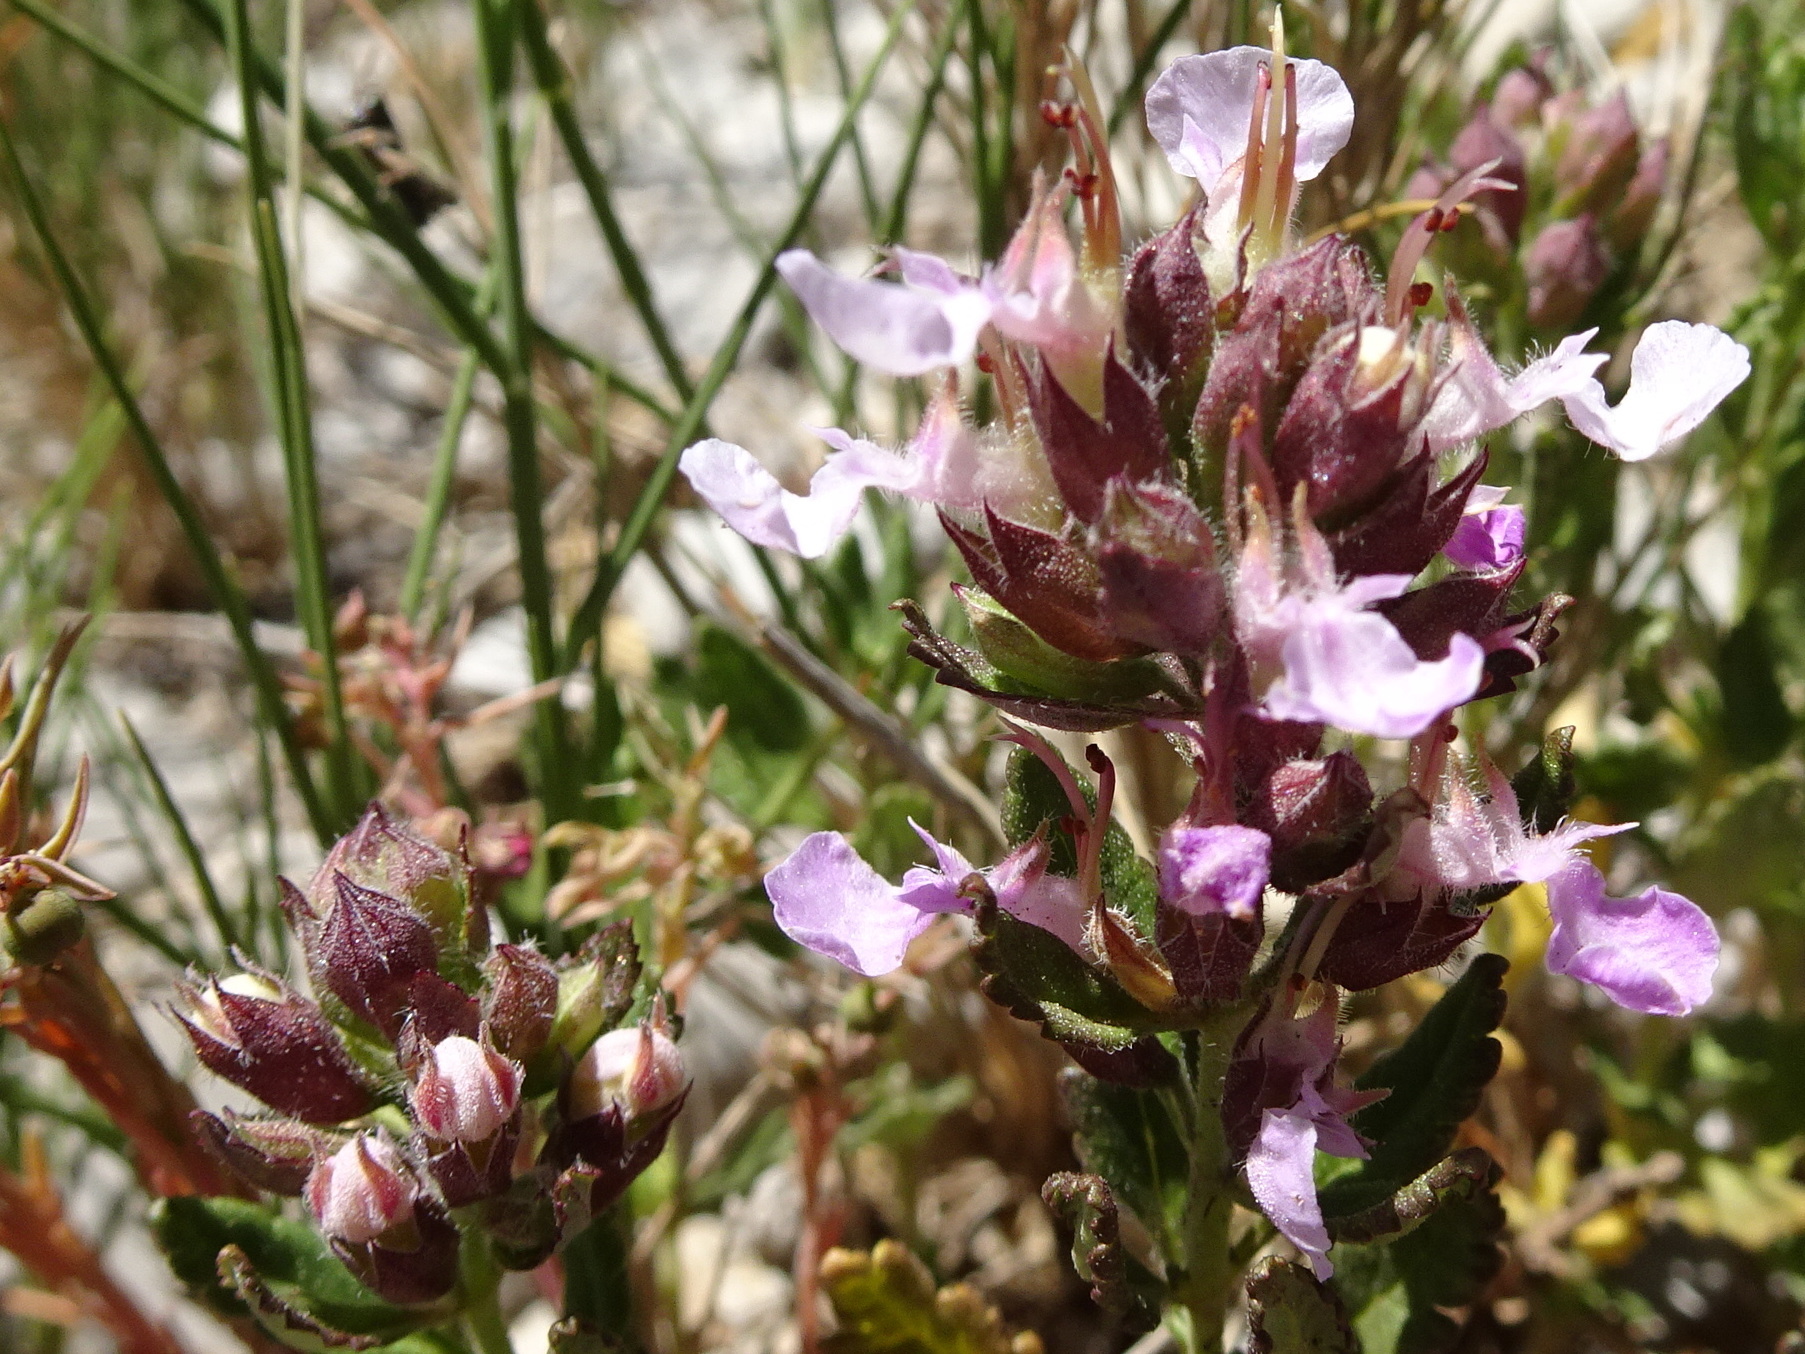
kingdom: Plantae
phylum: Tracheophyta
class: Magnoliopsida
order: Lamiales
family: Lamiaceae
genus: Teucrium
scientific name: Teucrium chamaedrys
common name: Wall germander
